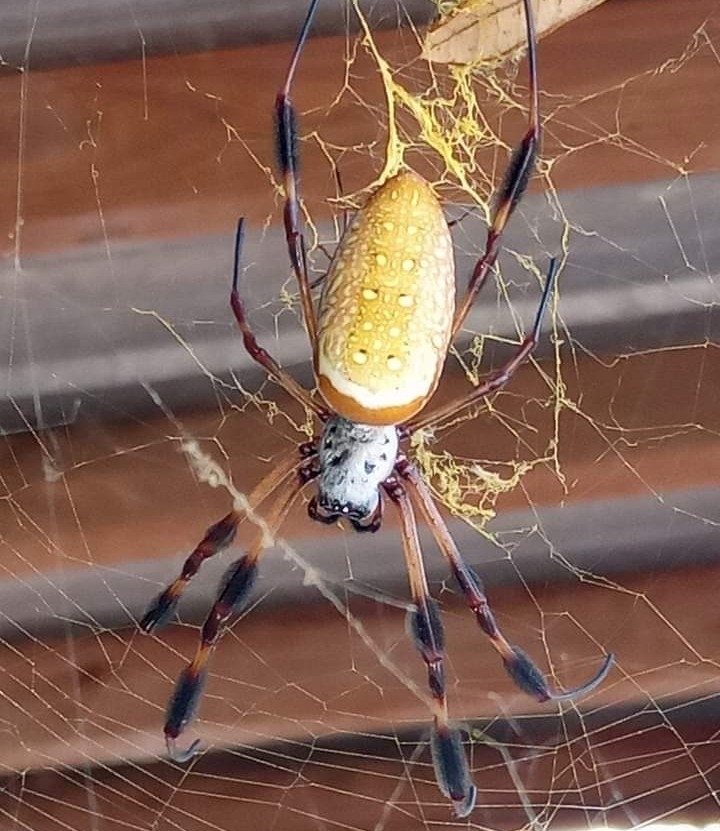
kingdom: Animalia
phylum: Arthropoda
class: Arachnida
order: Araneae
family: Araneidae
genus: Trichonephila
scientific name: Trichonephila clavipes
